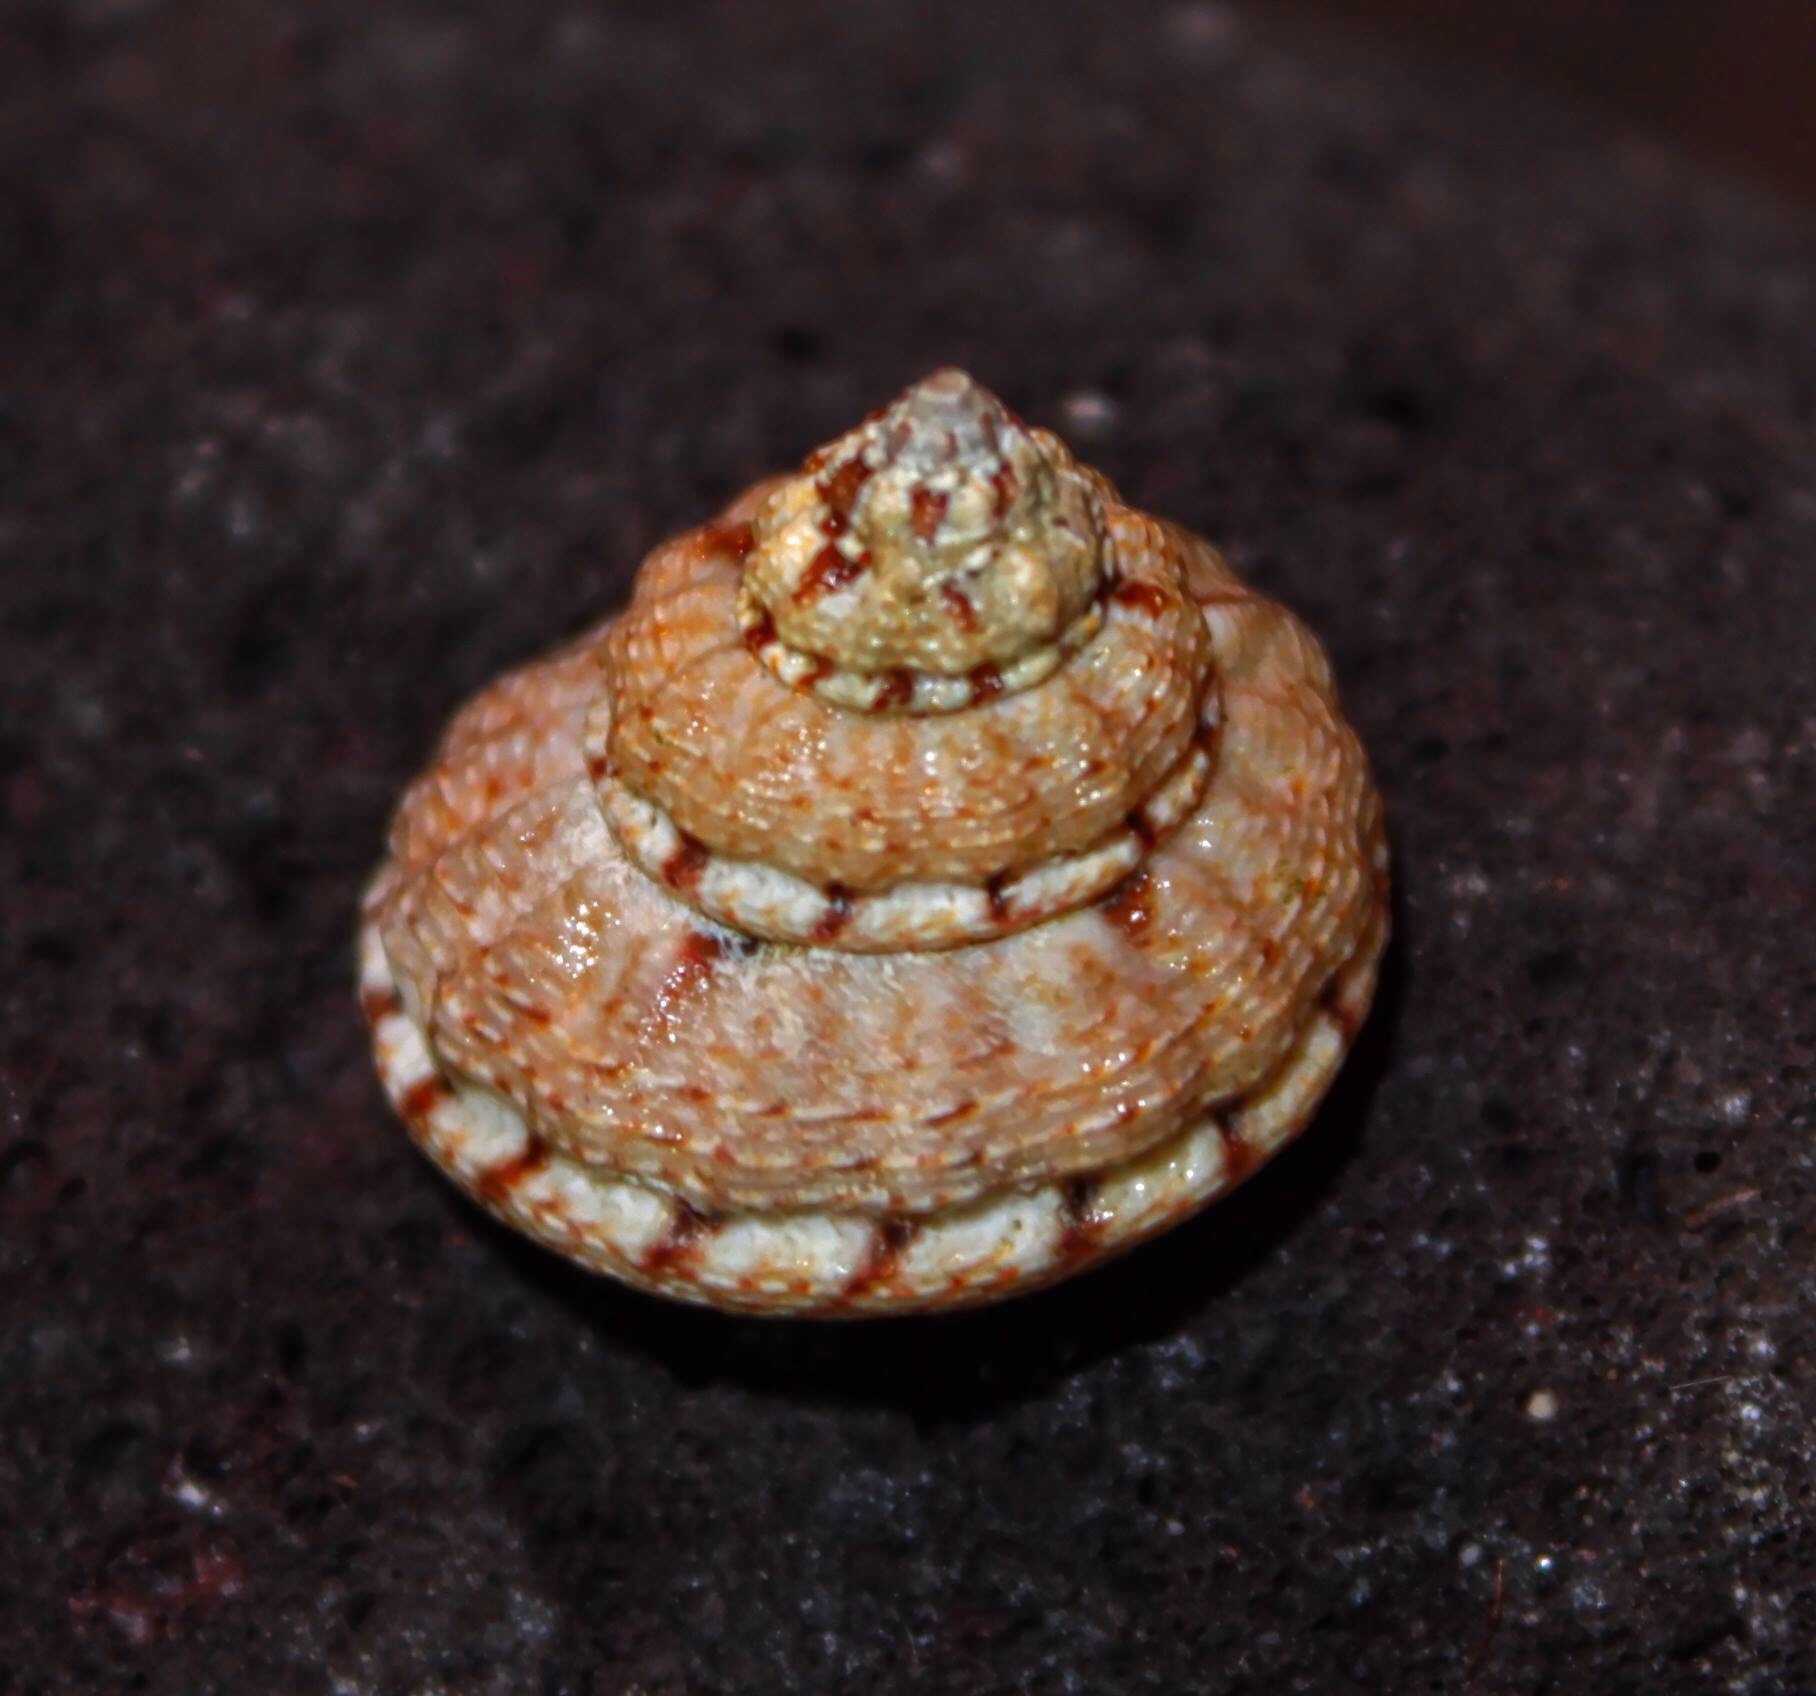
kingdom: Animalia
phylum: Mollusca
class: Gastropoda
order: Trochida
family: Trochidae
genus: Gibbula
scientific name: Gibbula fanulum
